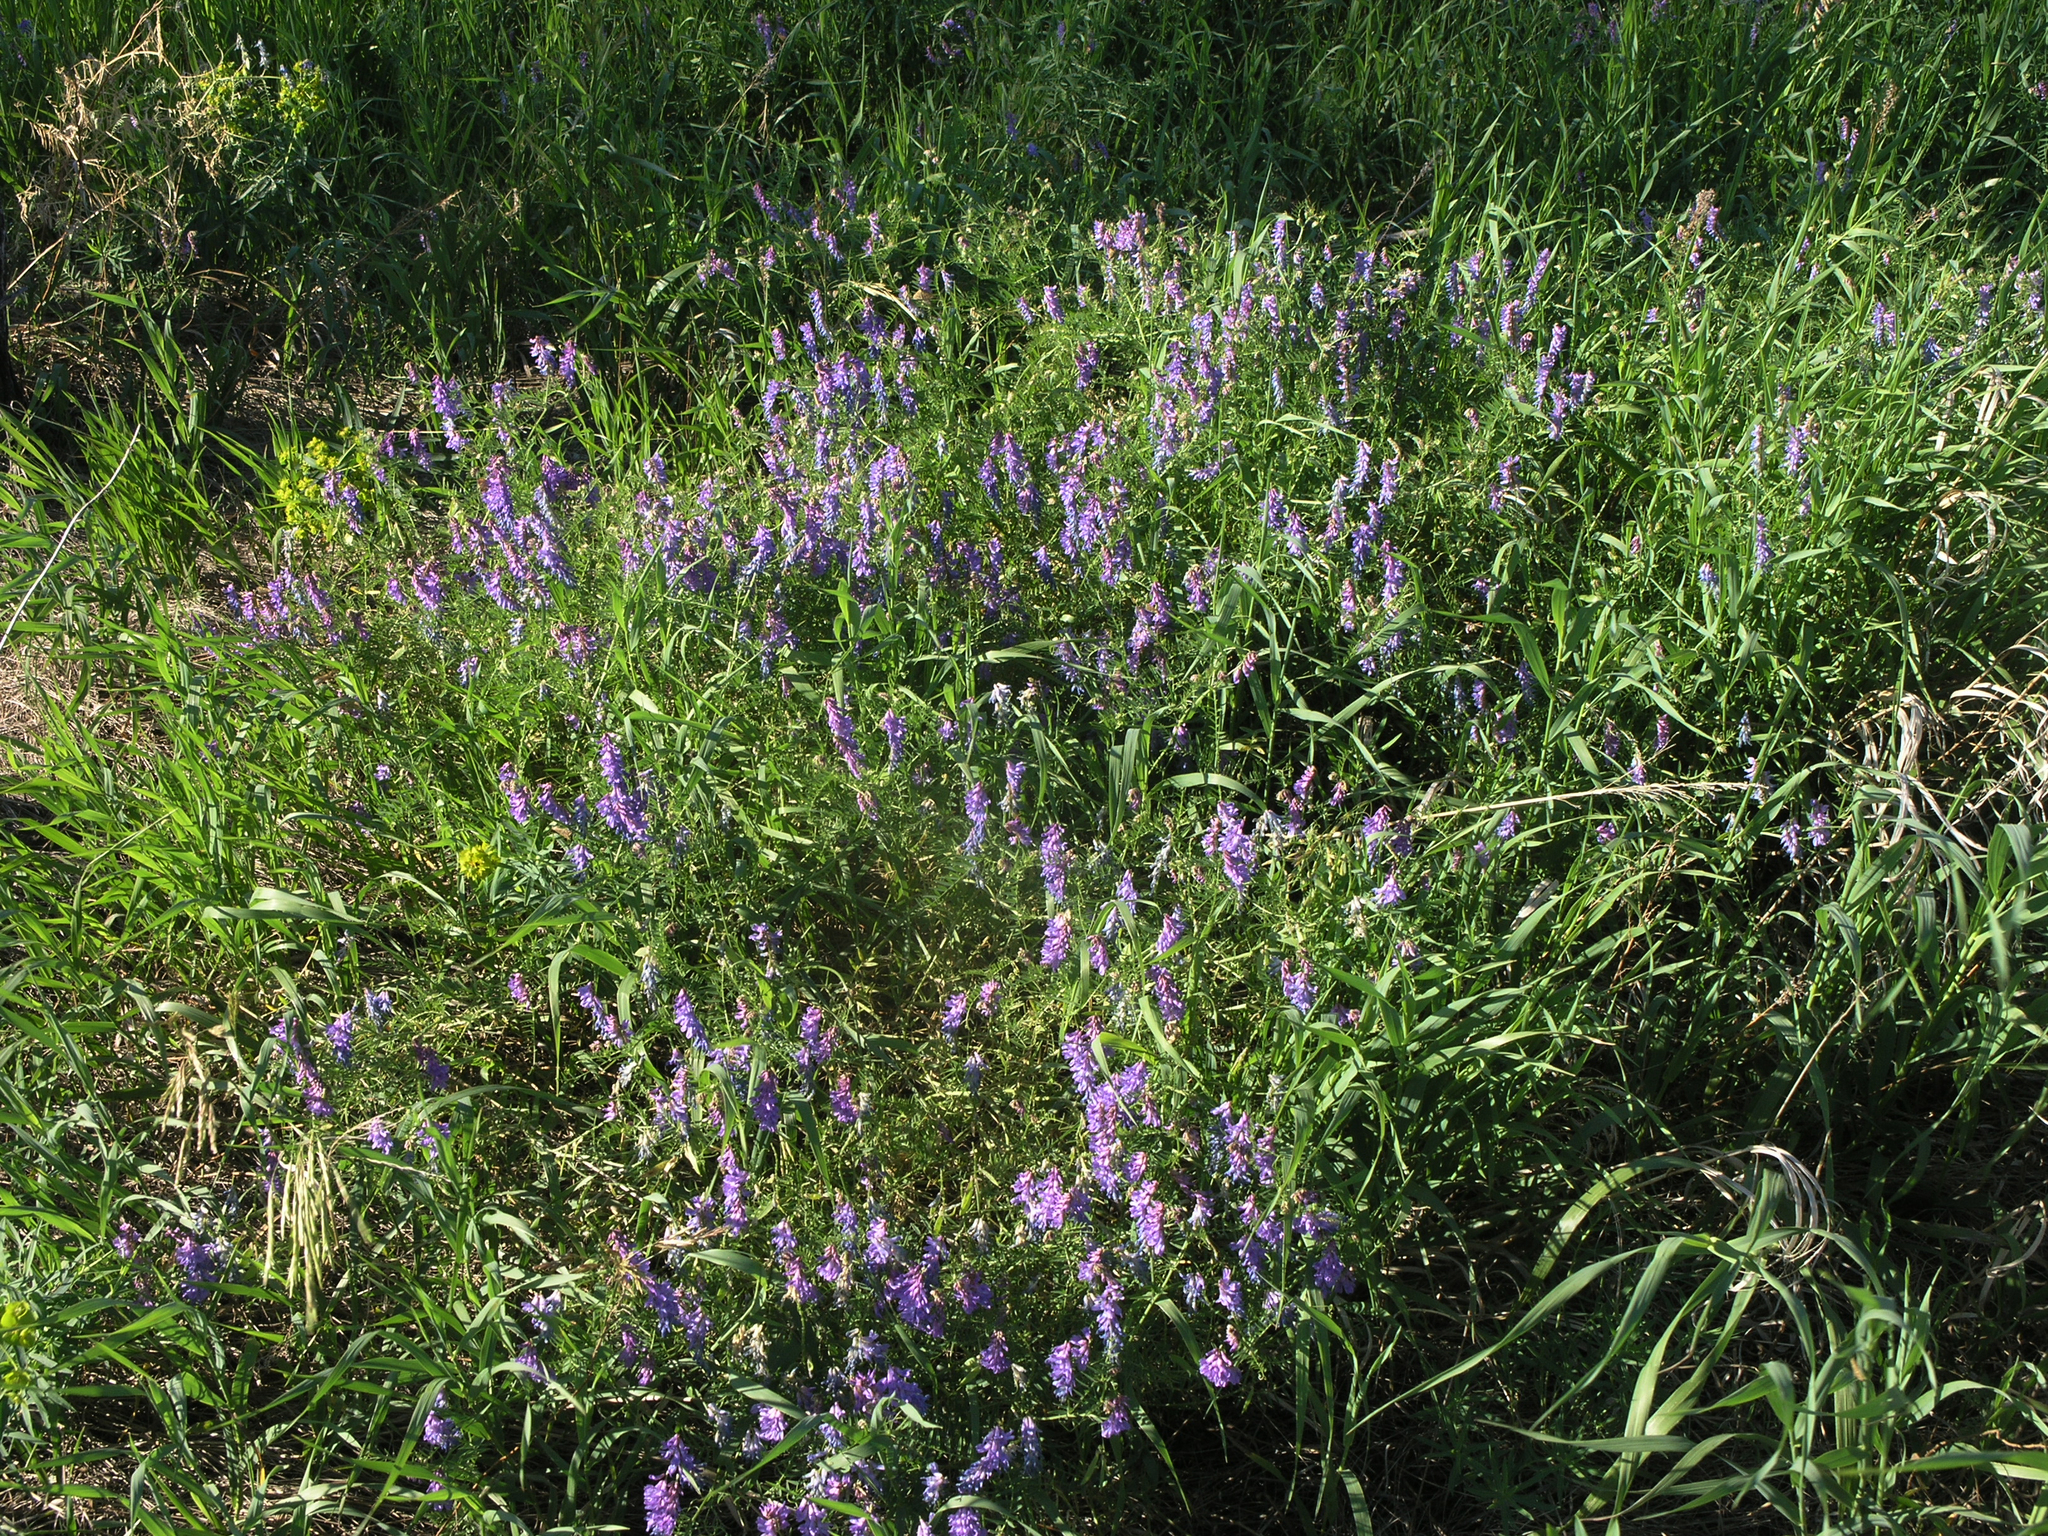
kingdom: Plantae
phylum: Tracheophyta
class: Magnoliopsida
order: Fabales
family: Fabaceae
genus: Vicia
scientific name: Vicia cracca
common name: Bird vetch
